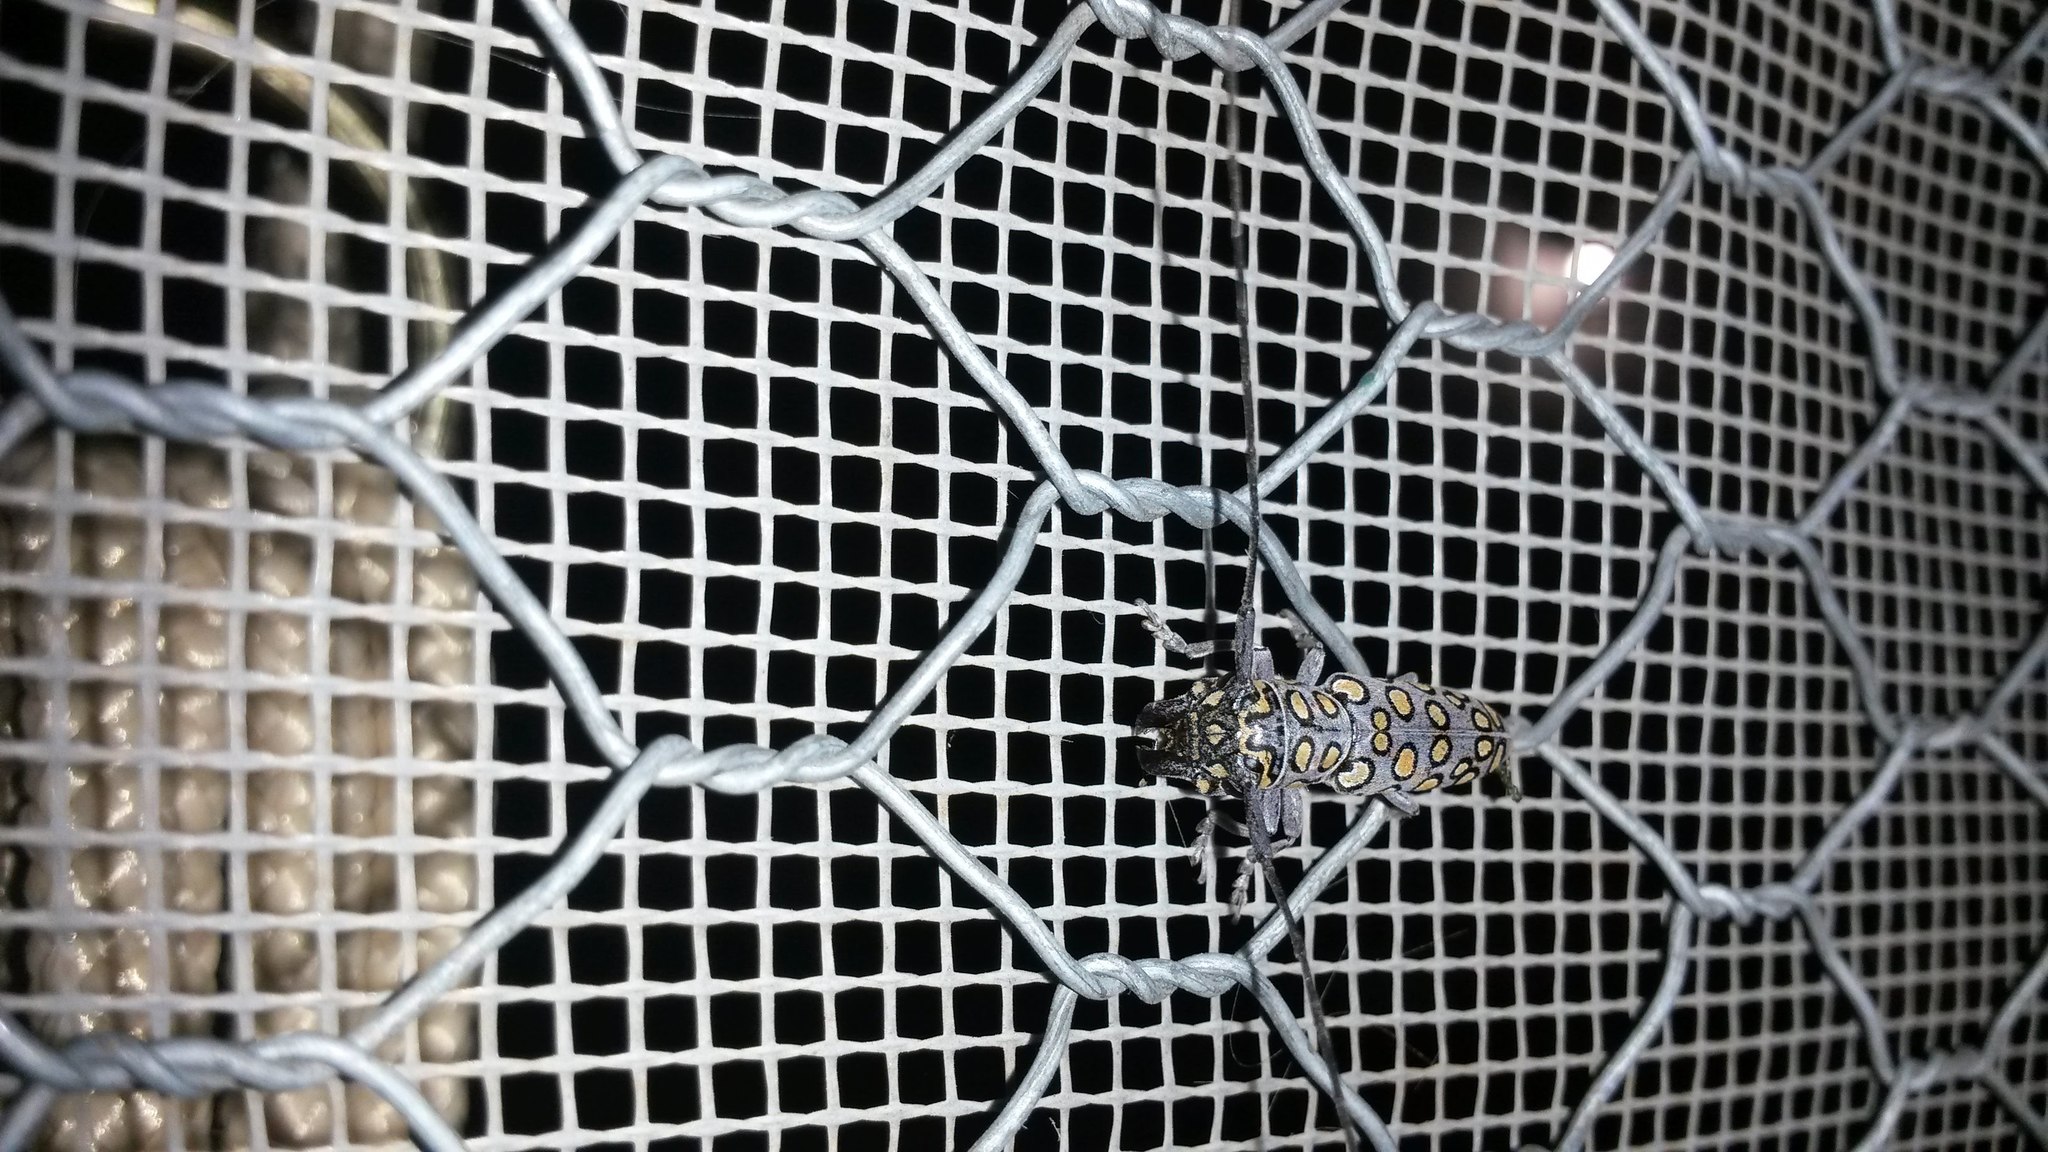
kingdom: Animalia
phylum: Arthropoda
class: Insecta
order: Coleoptera
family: Cerambycidae
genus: Dinocephalus
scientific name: Dinocephalus ornatus
